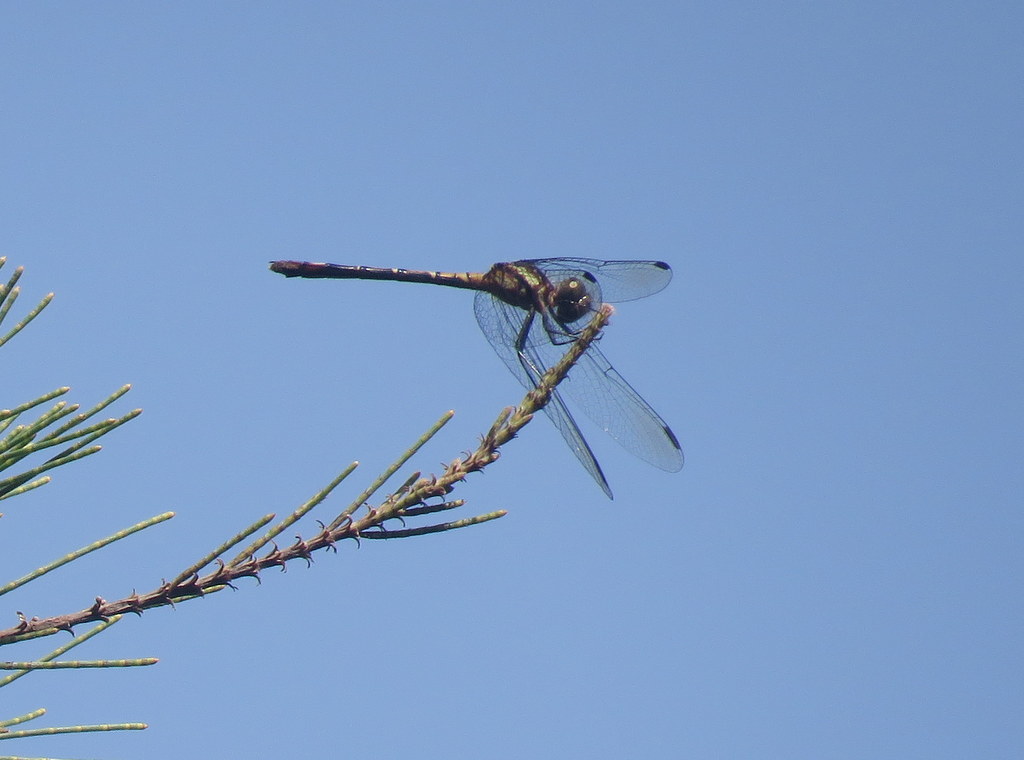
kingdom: Animalia
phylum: Arthropoda
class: Insecta
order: Odonata
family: Libellulidae
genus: Micrathyria
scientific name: Micrathyria hypodidyma
